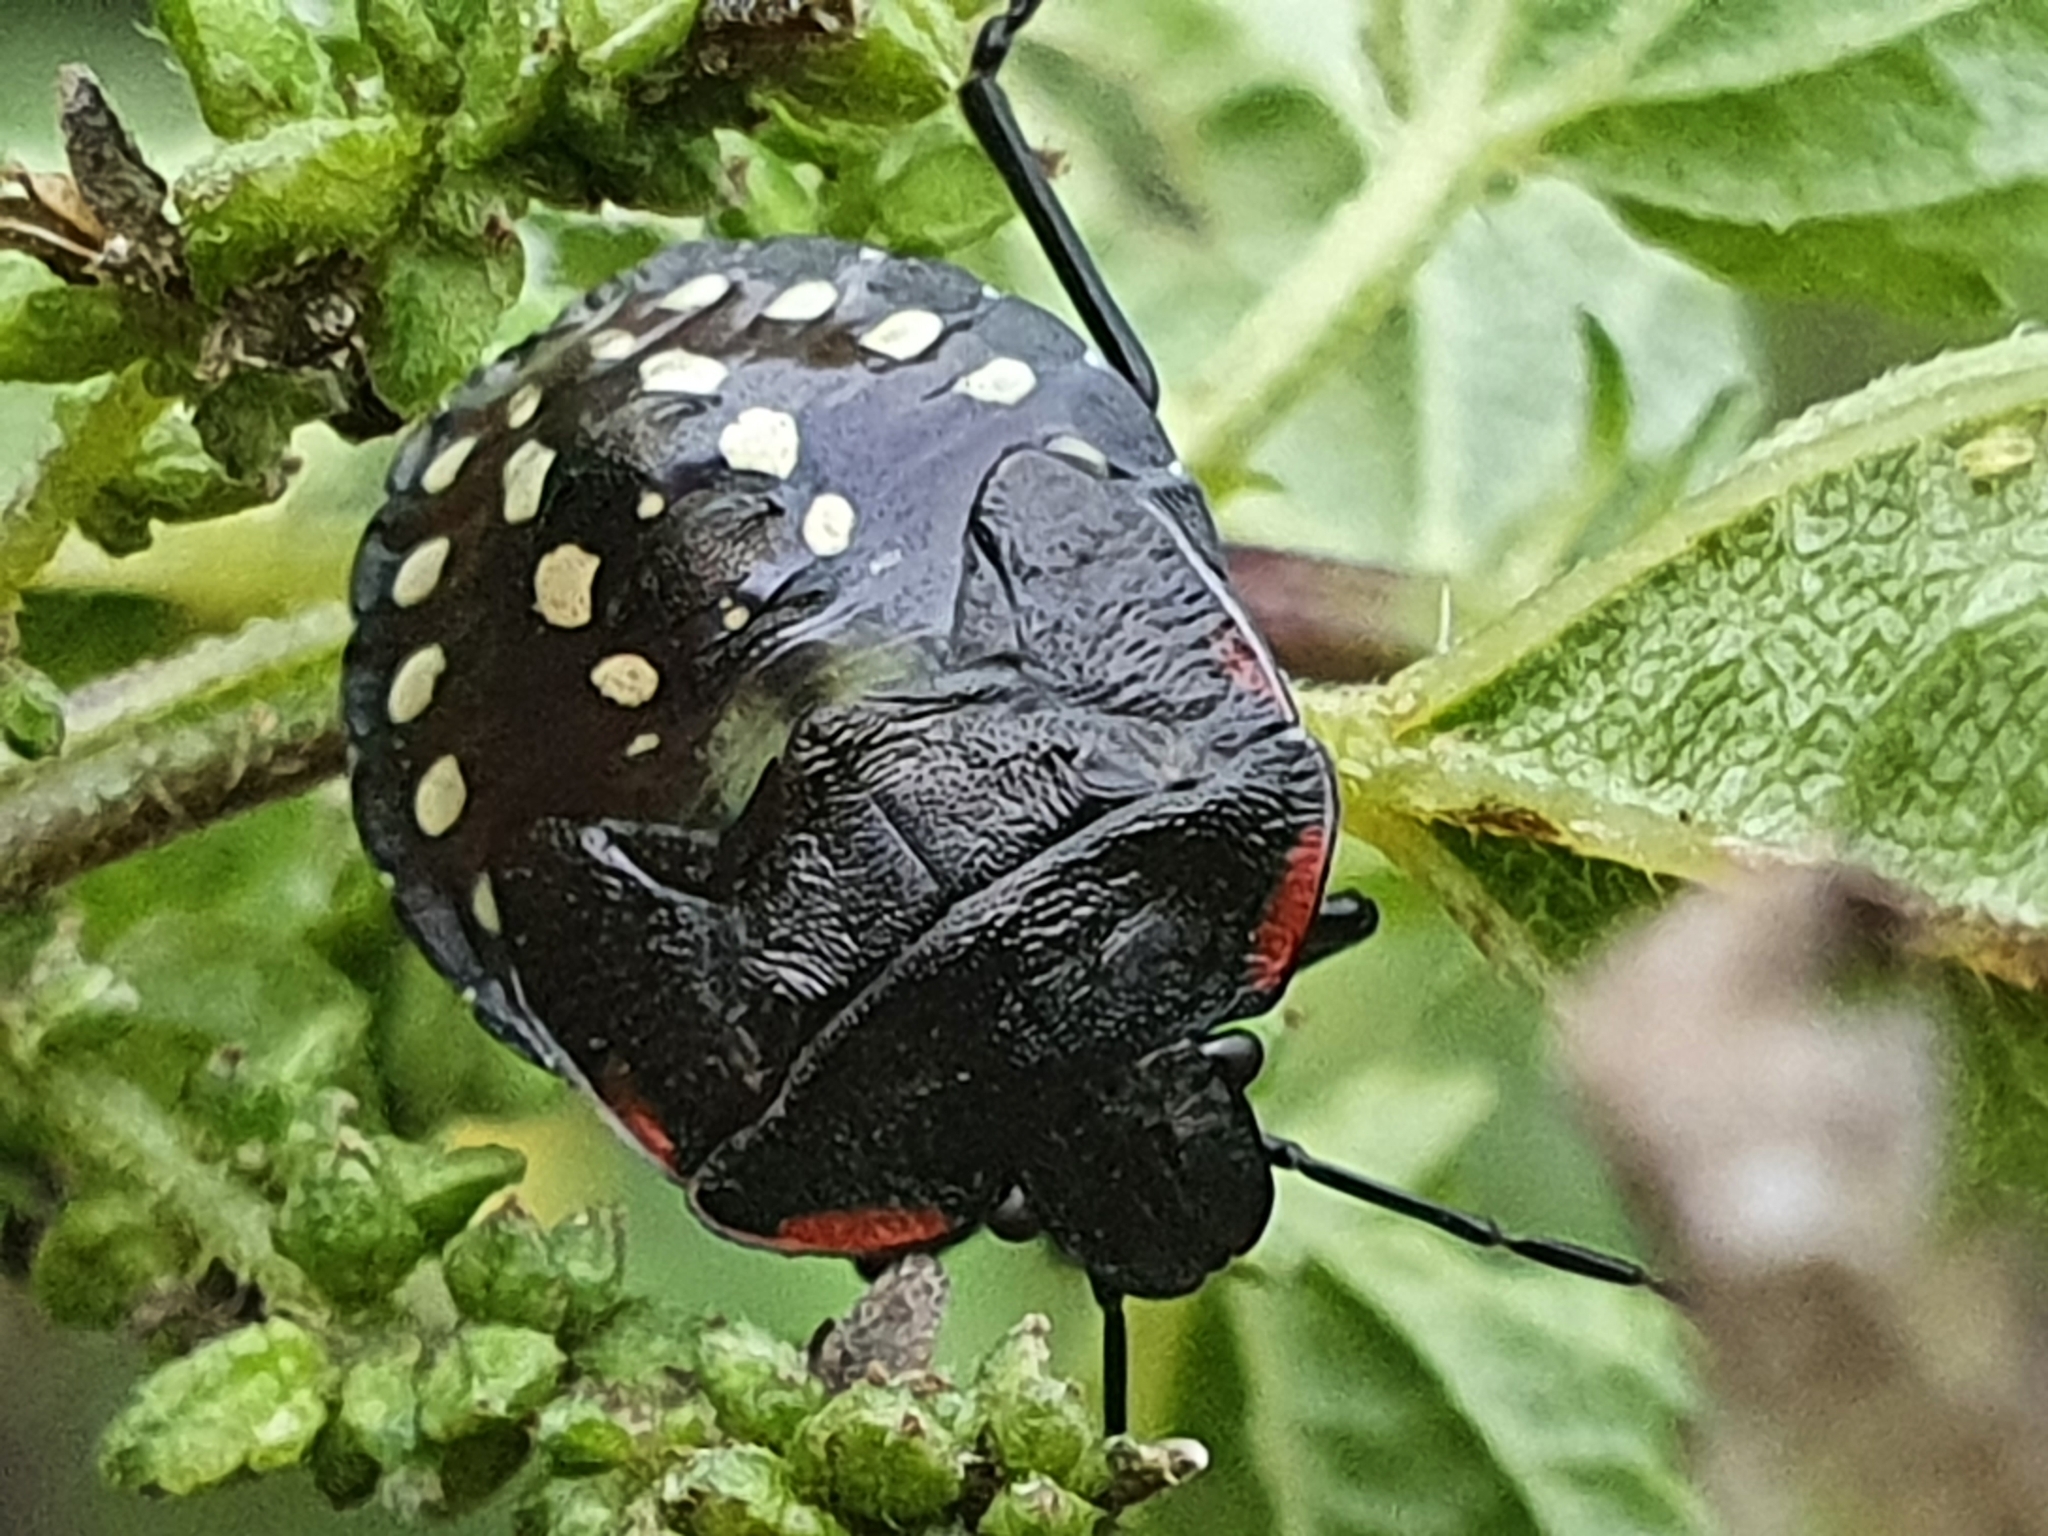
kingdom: Animalia
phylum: Arthropoda
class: Insecta
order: Hemiptera
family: Pentatomidae
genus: Nezara
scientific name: Nezara viridula
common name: Southern green stink bug
